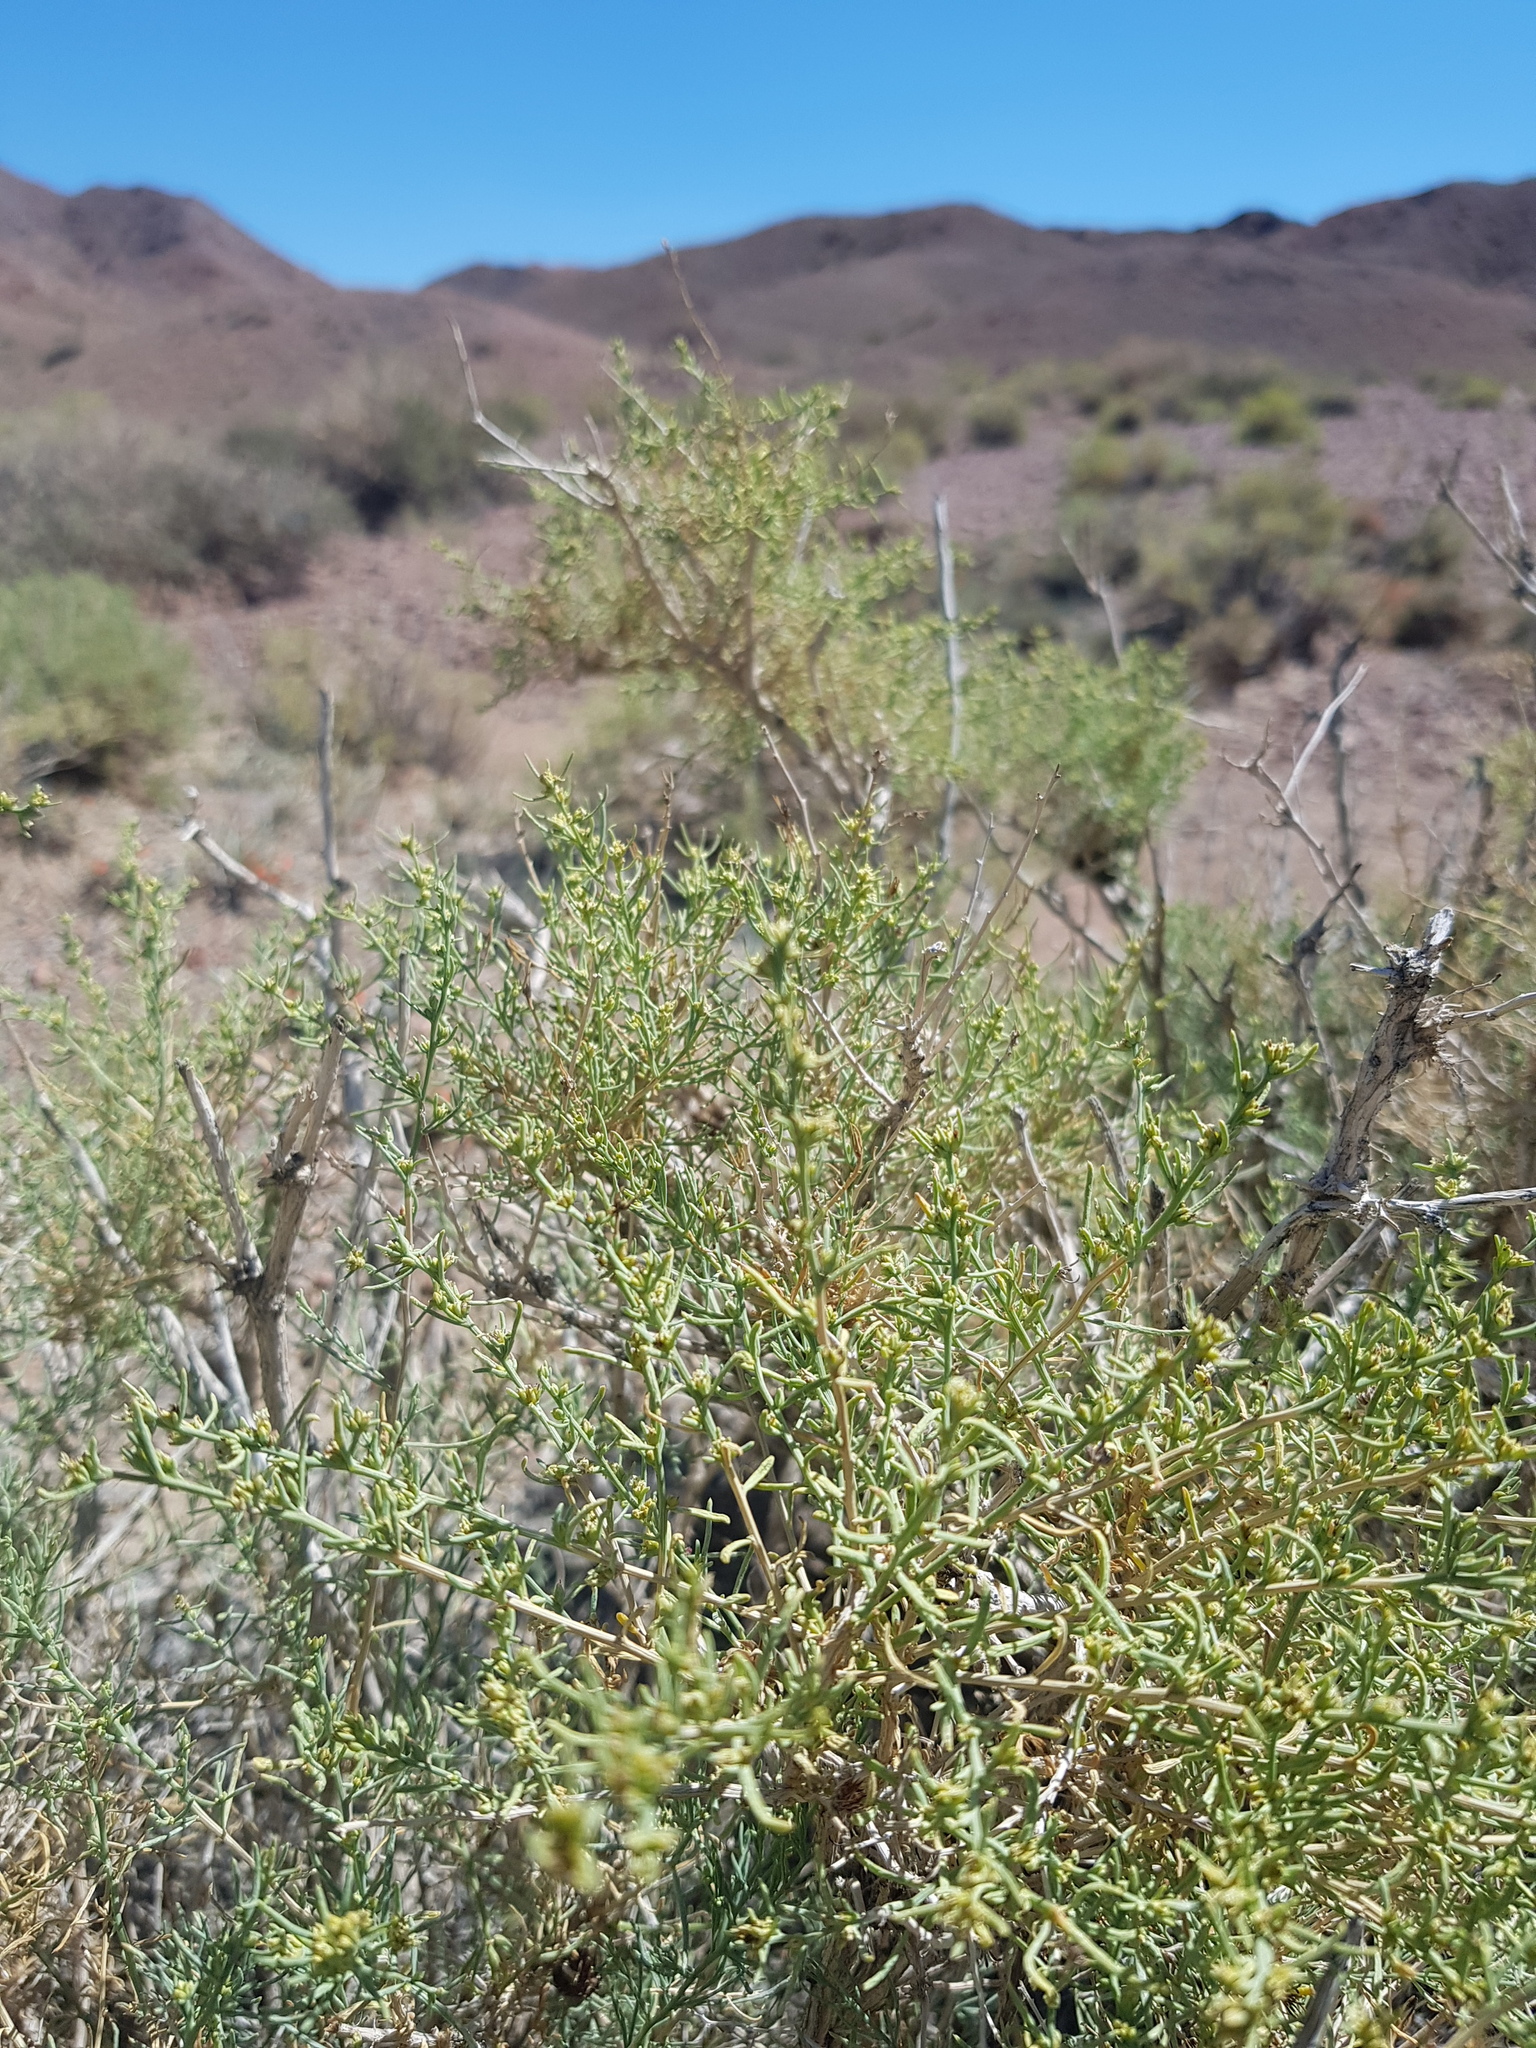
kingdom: Plantae
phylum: Tracheophyta
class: Magnoliopsida
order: Caryophyllales
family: Amaranthaceae
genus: Sympegma
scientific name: Sympegma regelii
